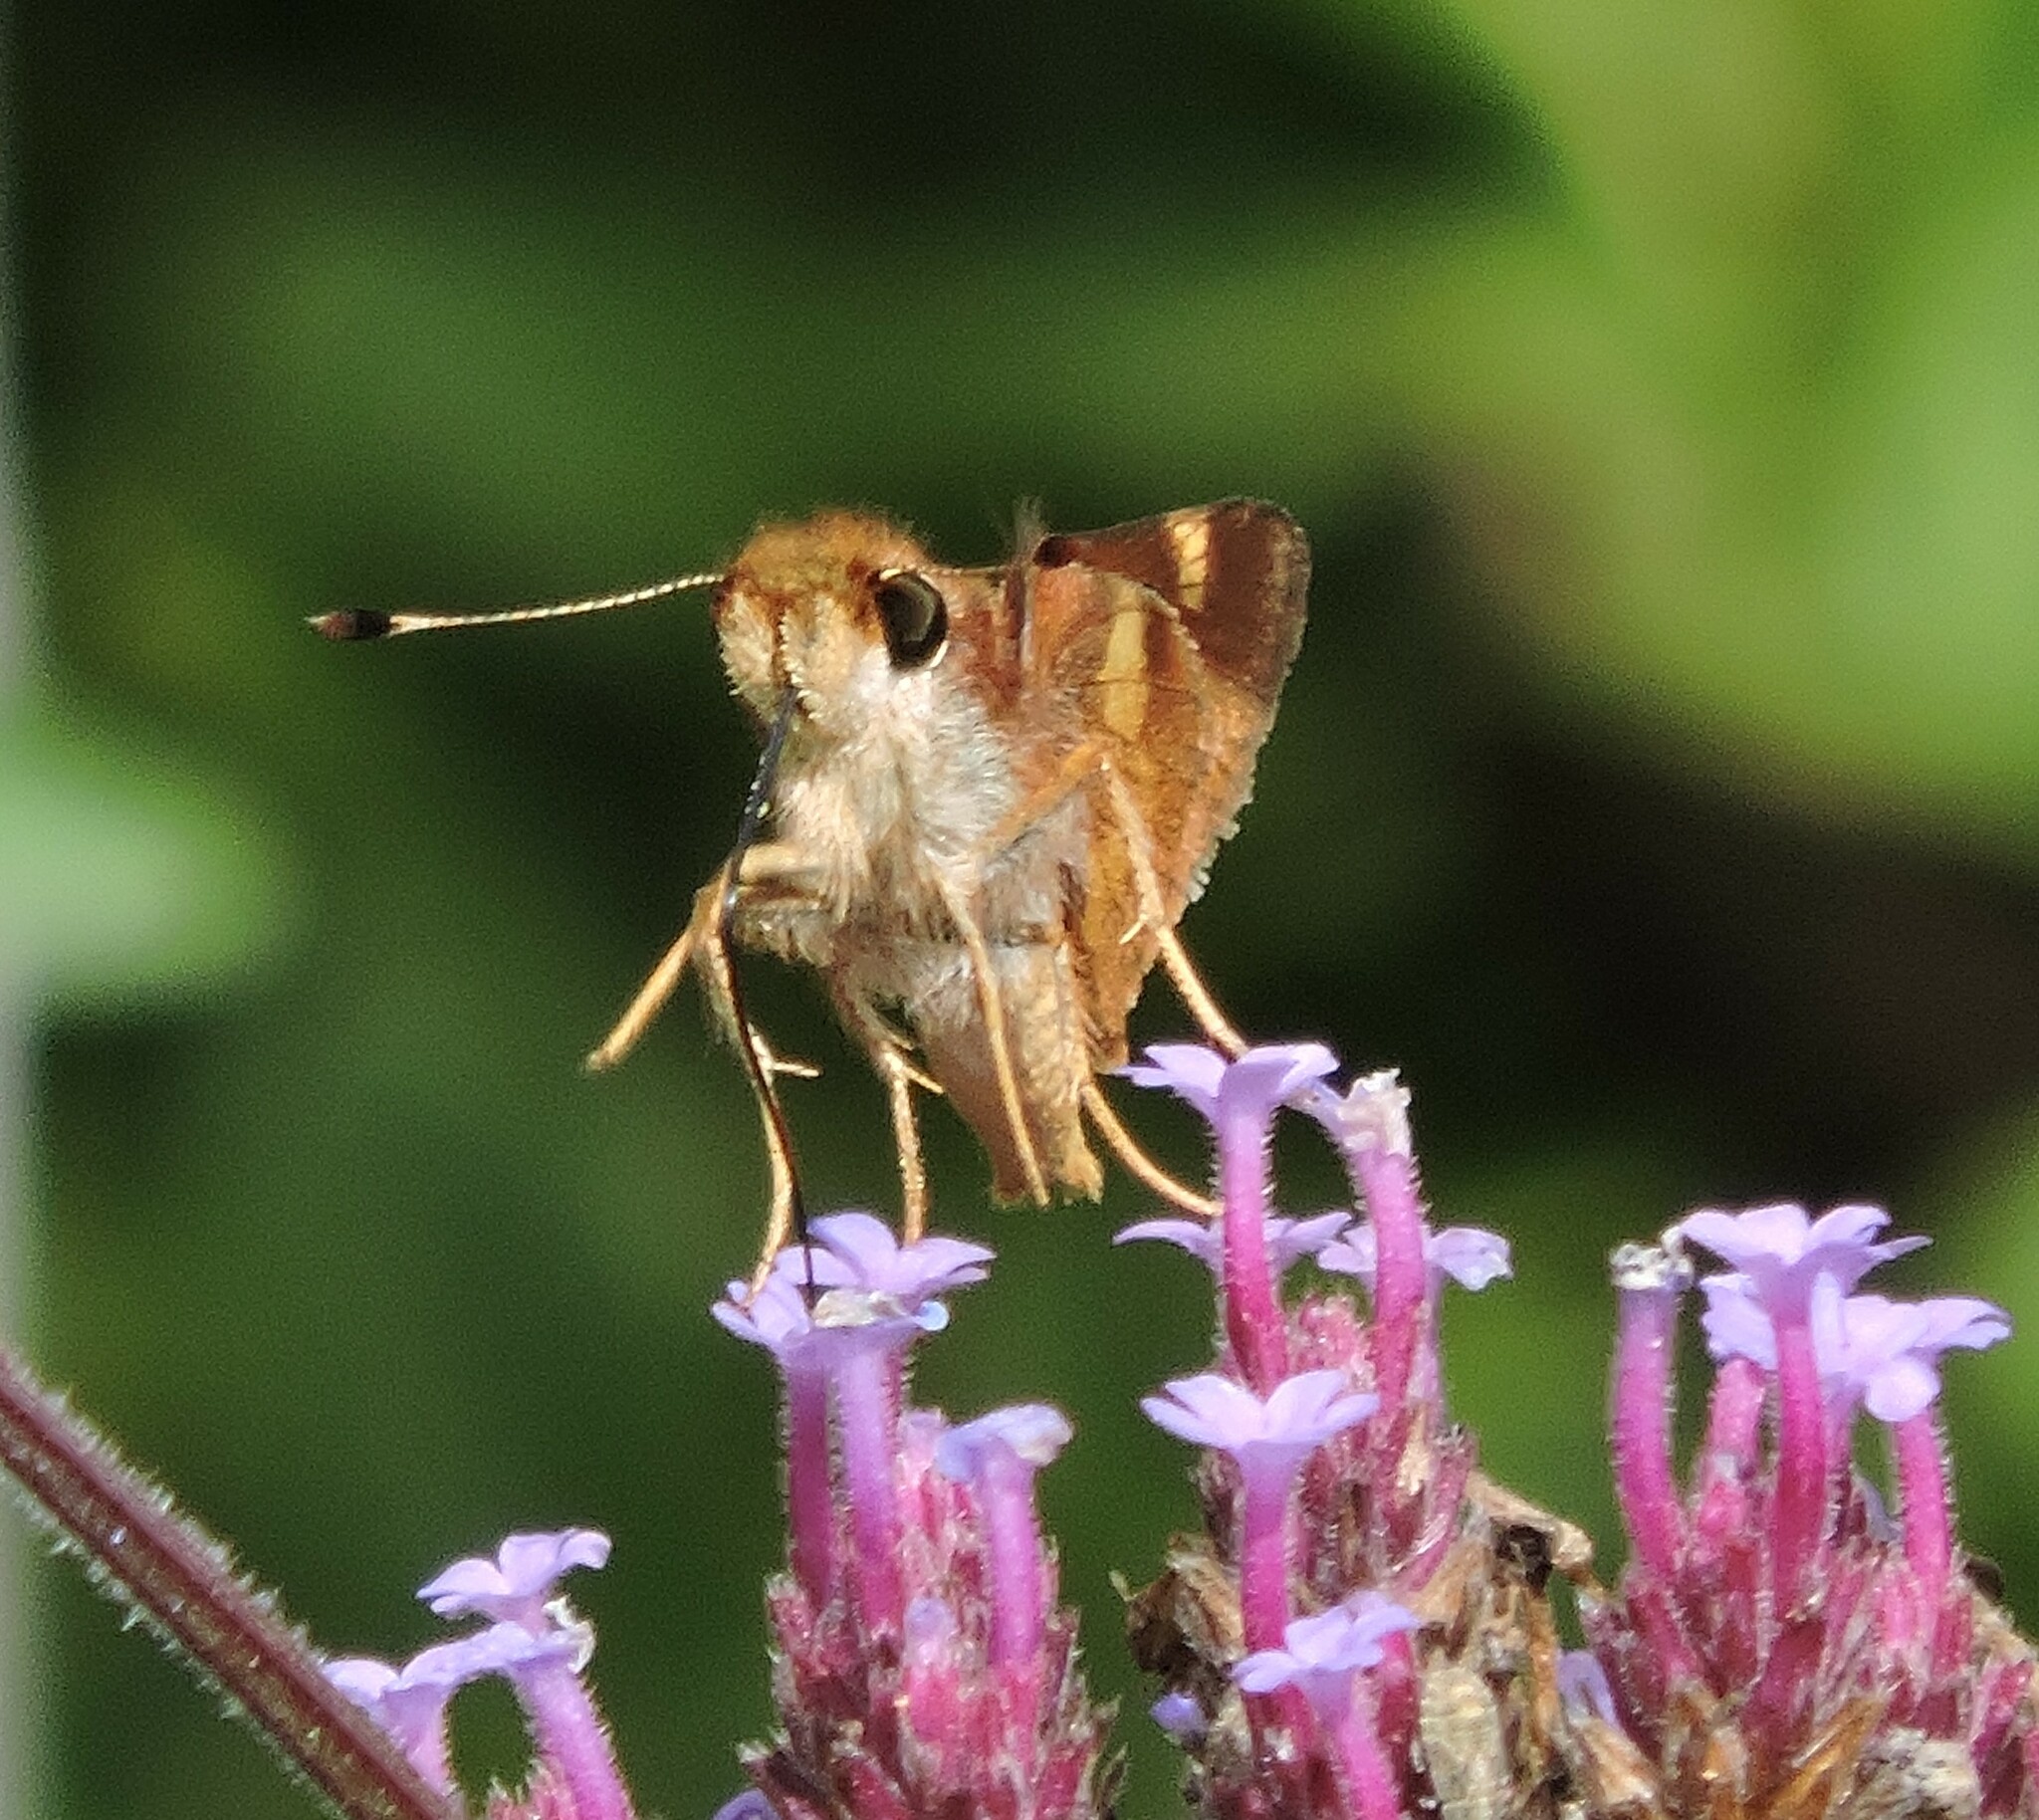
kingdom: Animalia
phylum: Arthropoda
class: Insecta
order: Lepidoptera
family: Hesperiidae
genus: Lon
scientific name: Lon melane
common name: Umber skipper
